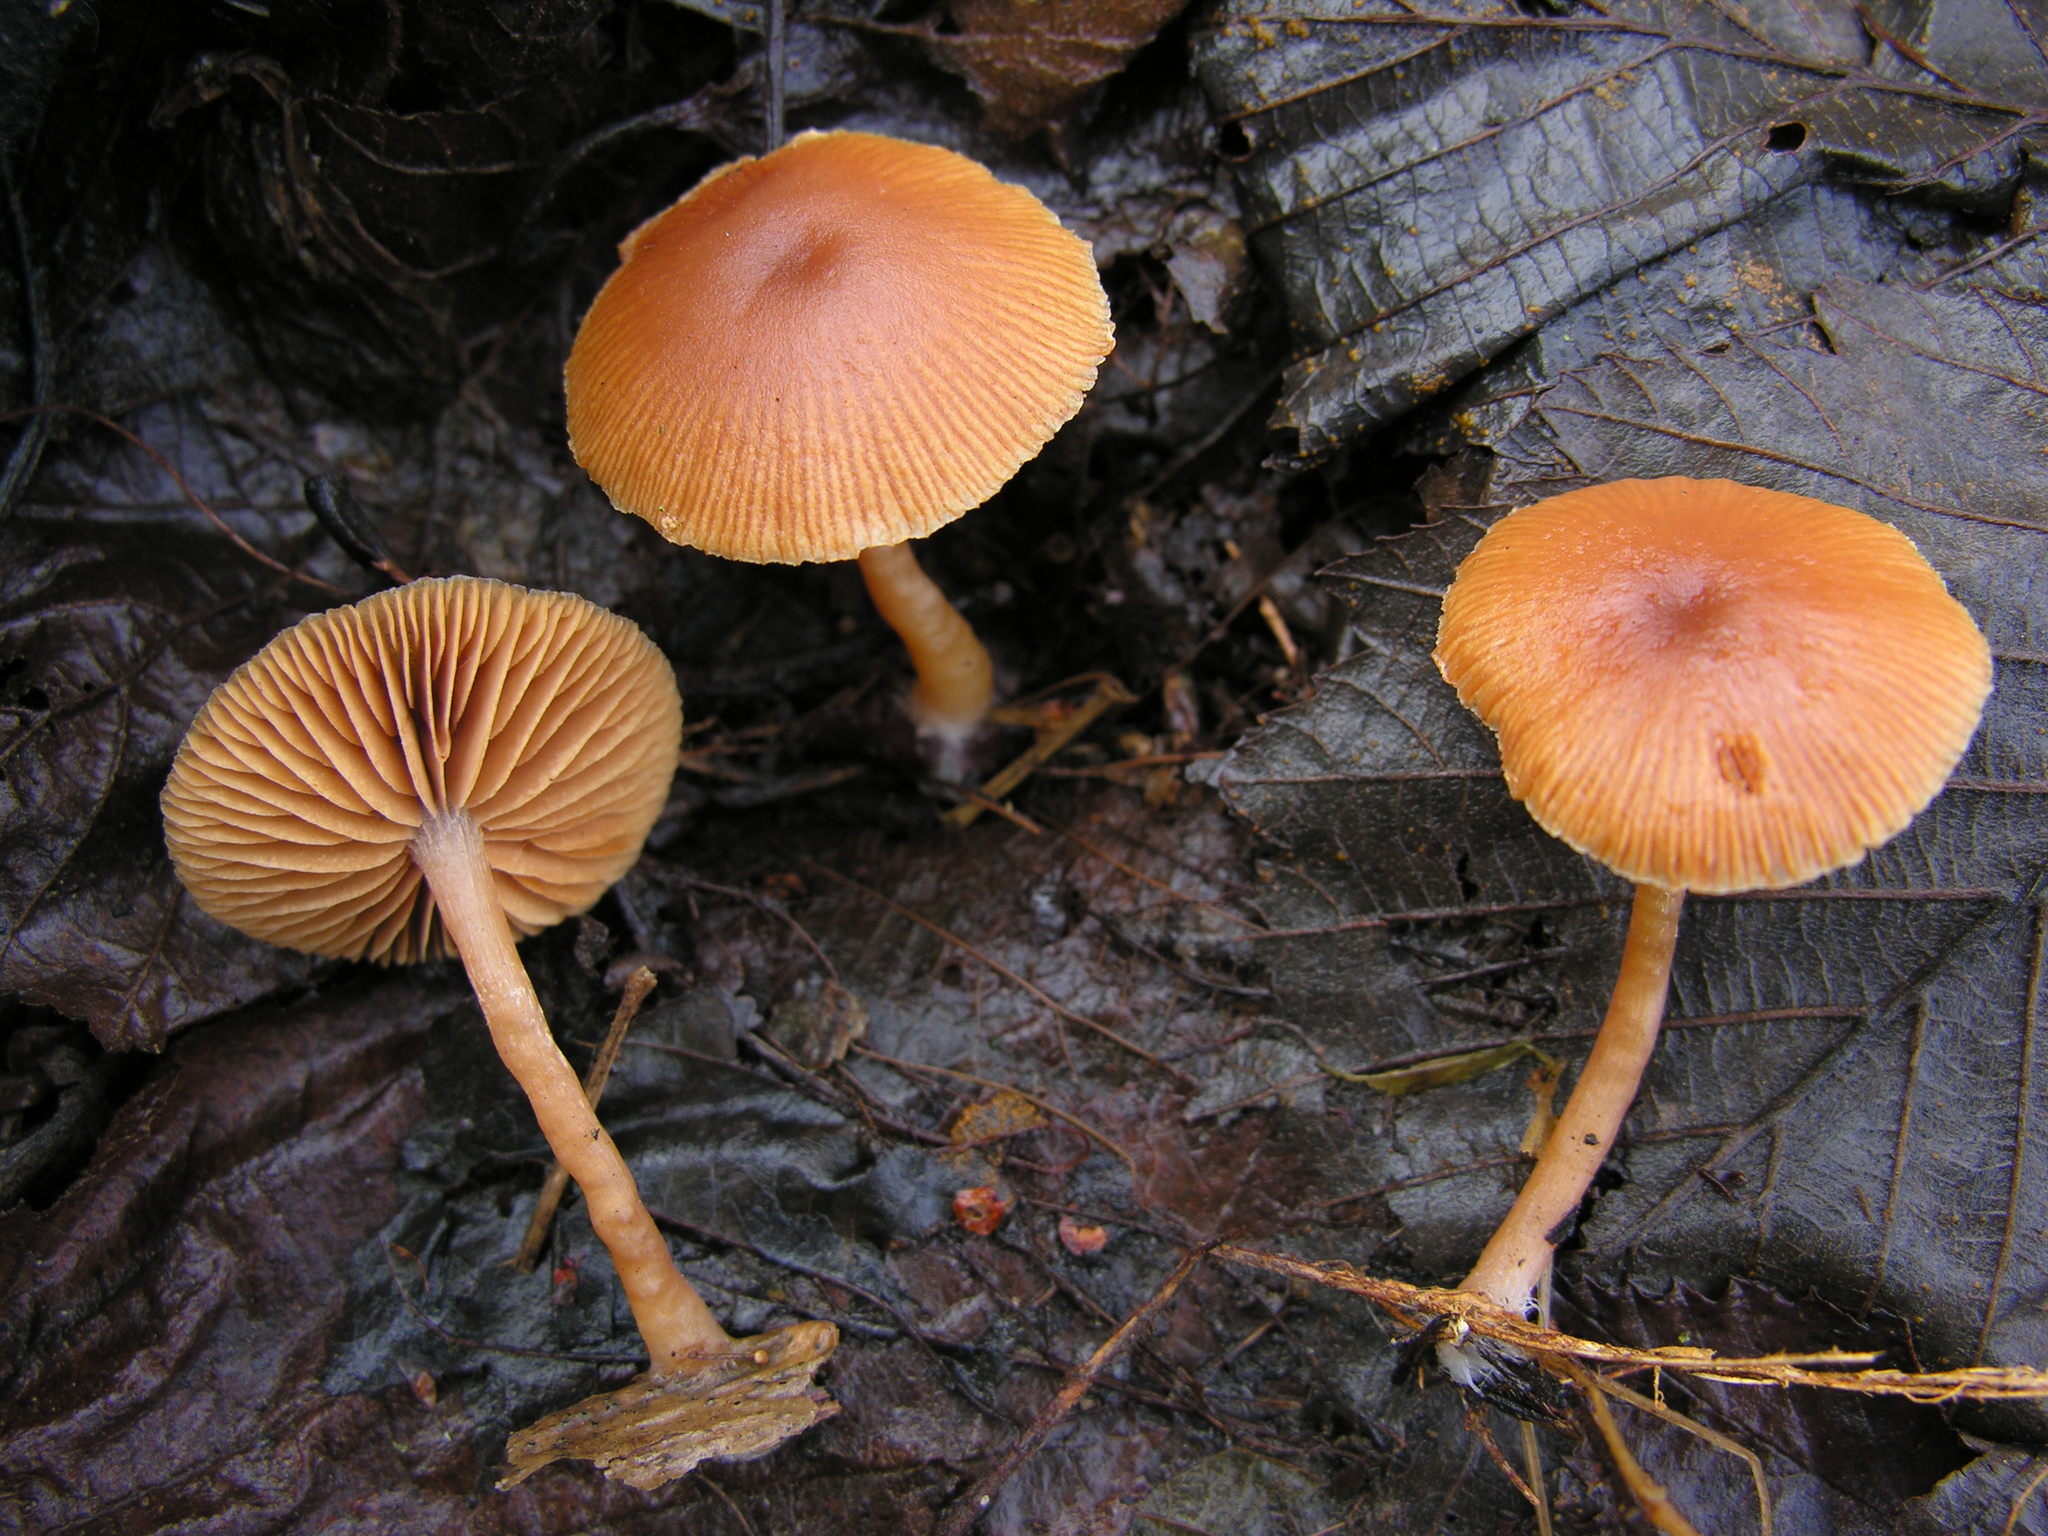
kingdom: Fungi
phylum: Basidiomycota
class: Agaricomycetes
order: Agaricales
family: Tubariaceae
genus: Tubaria
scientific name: Tubaria furfuracea
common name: Scurfy twiglet
